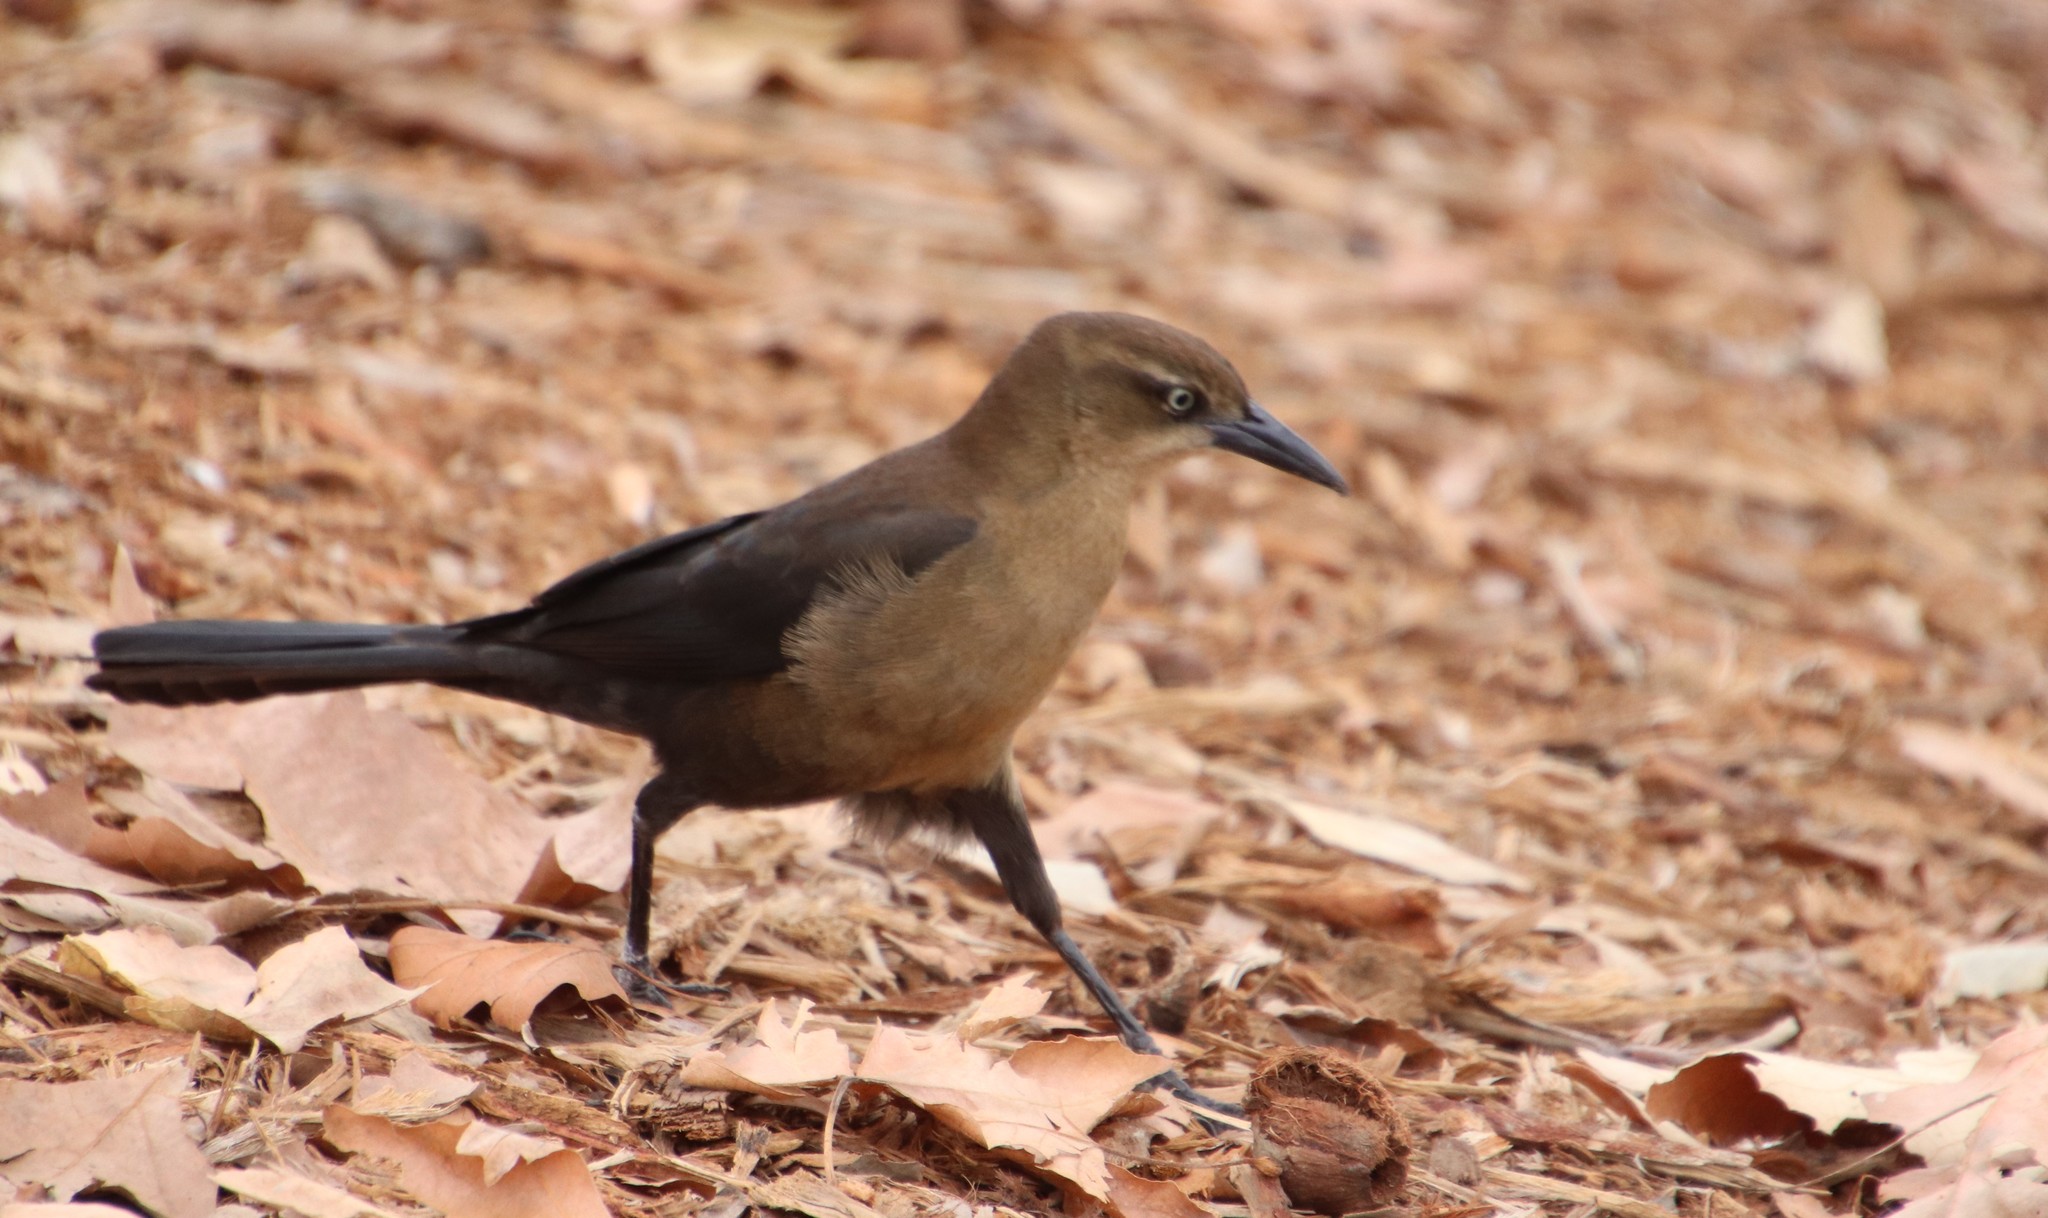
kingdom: Animalia
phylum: Chordata
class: Aves
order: Passeriformes
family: Icteridae
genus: Quiscalus
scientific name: Quiscalus mexicanus
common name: Great-tailed grackle
